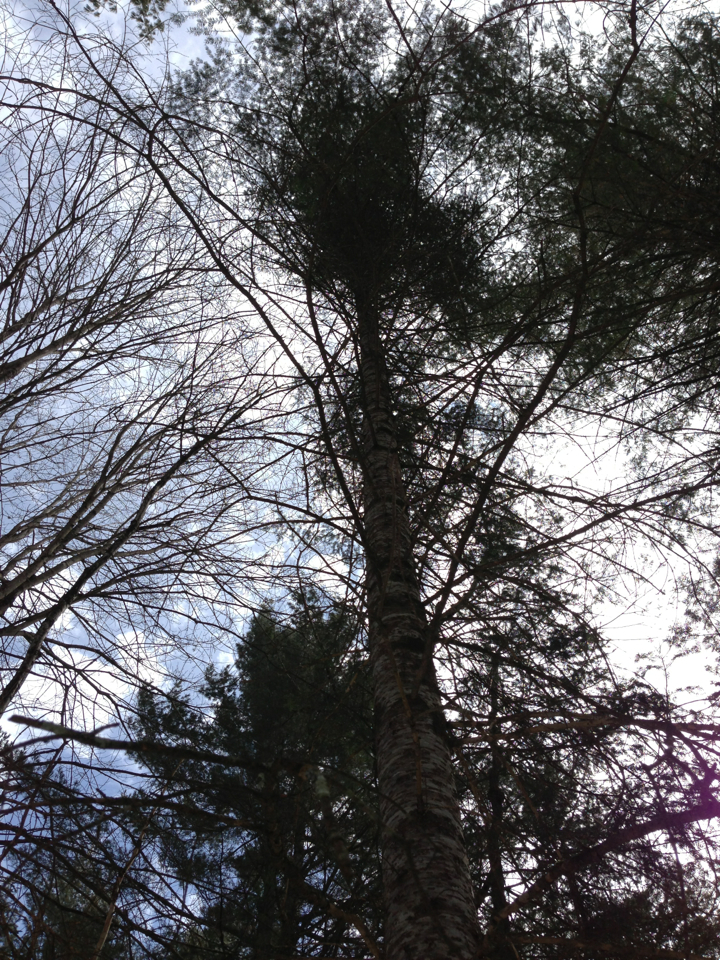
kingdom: Plantae
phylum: Tracheophyta
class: Pinopsida
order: Pinales
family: Pinaceae
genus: Abies
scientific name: Abies balsamea
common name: Balsam fir
